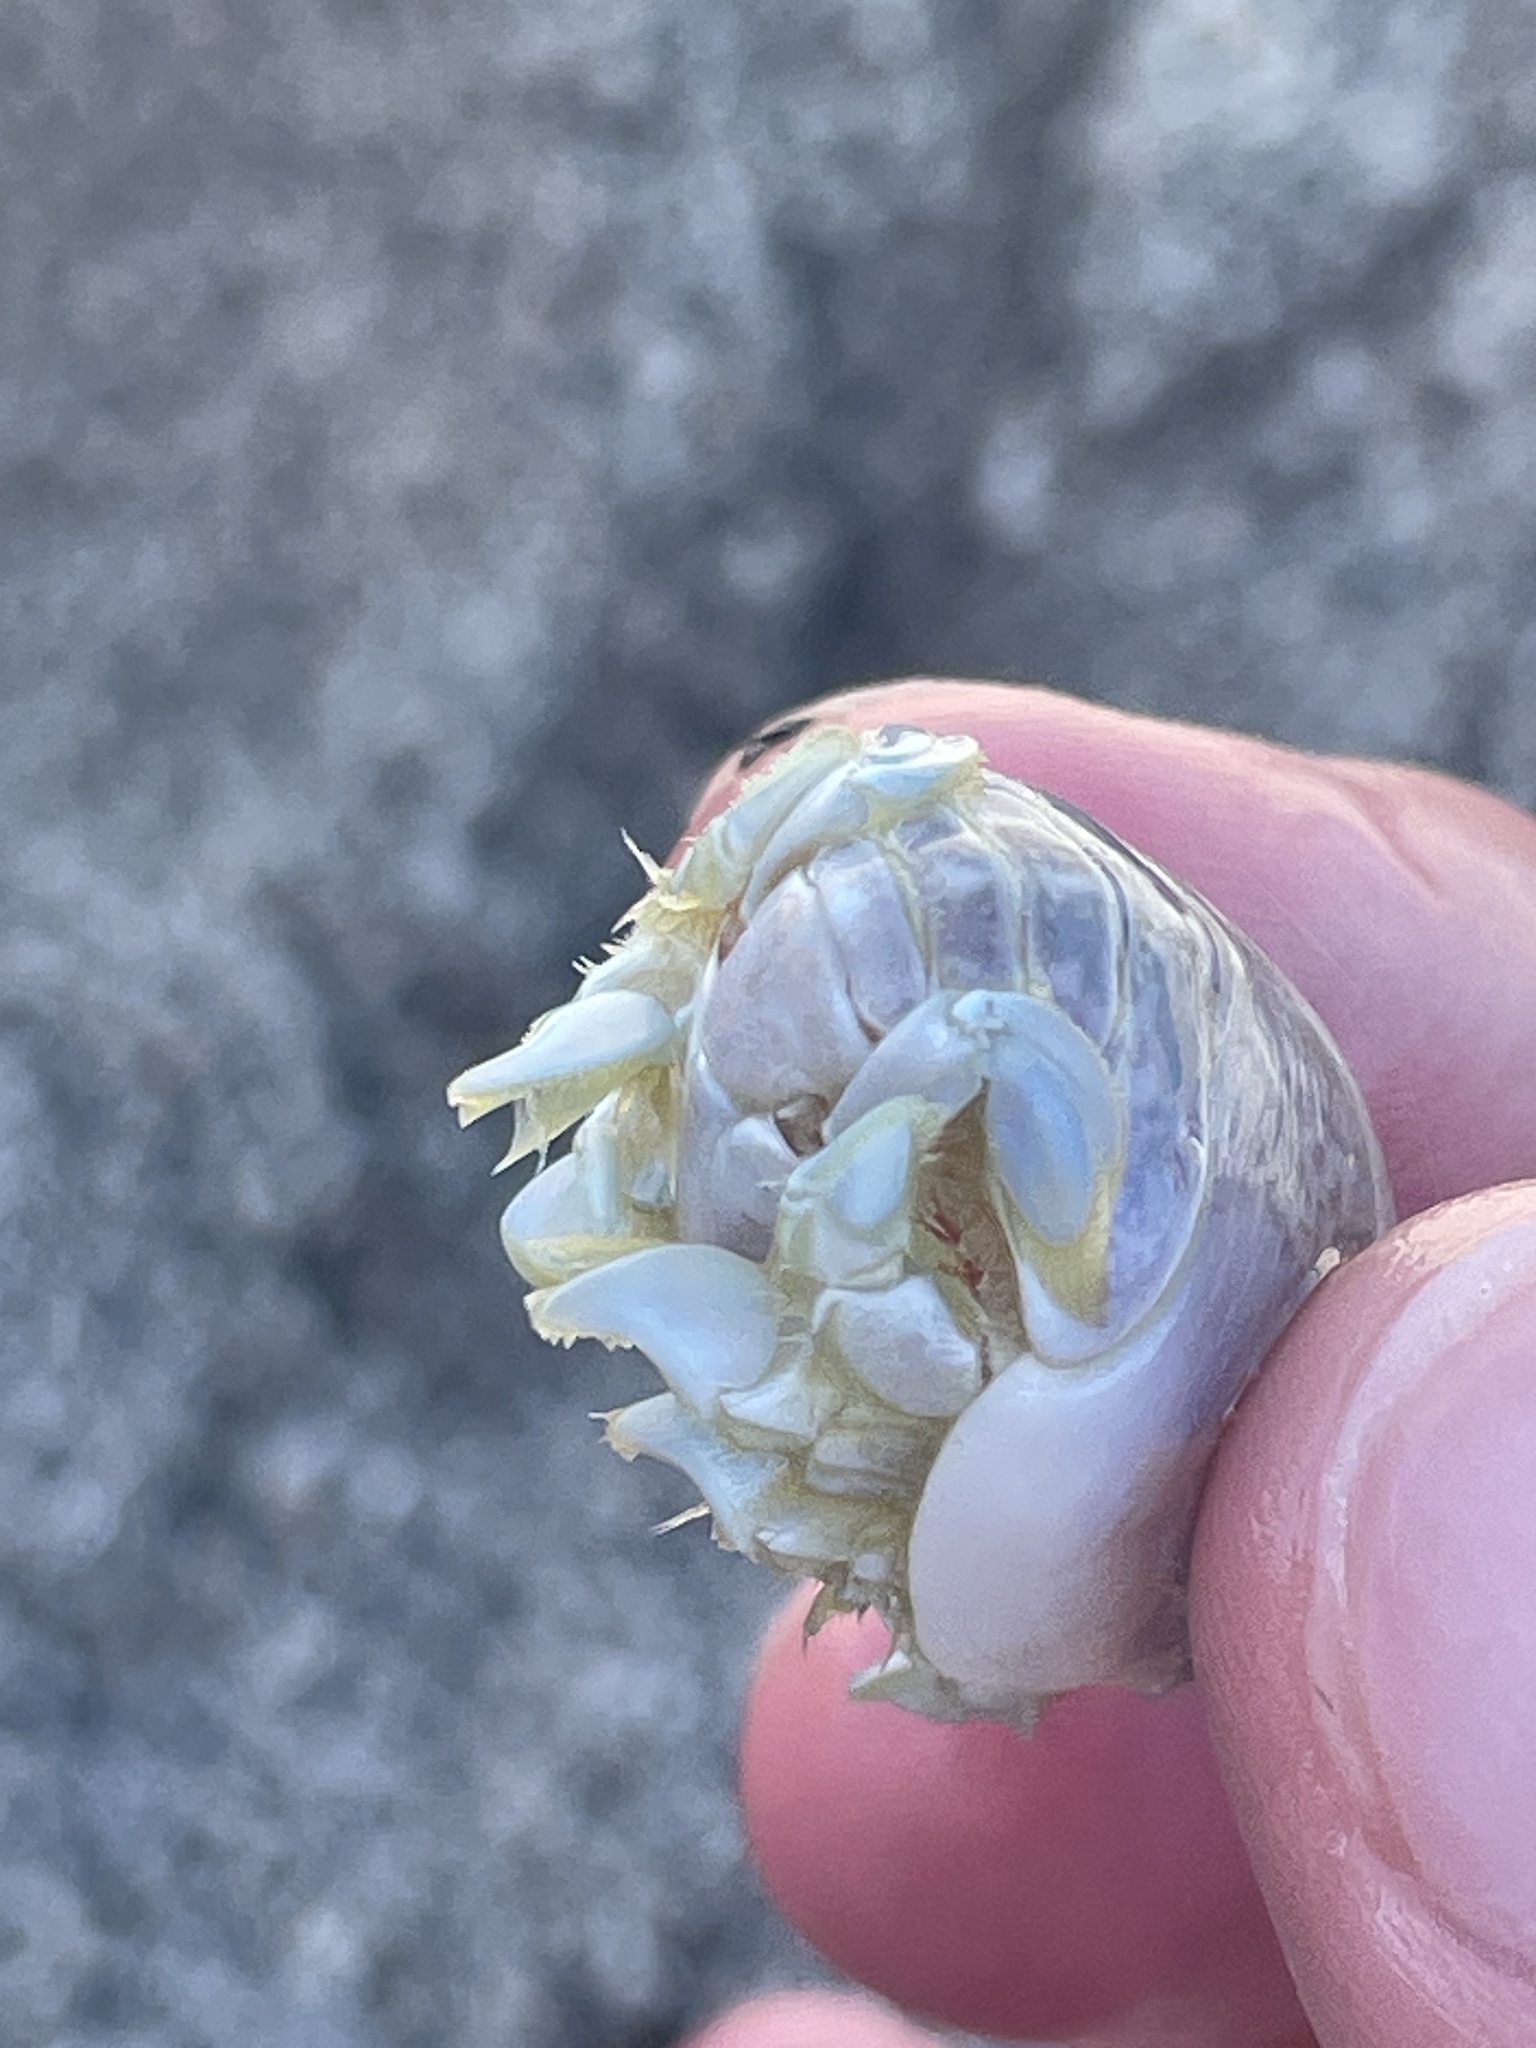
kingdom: Animalia
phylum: Arthropoda
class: Malacostraca
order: Decapoda
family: Hippidae
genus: Emerita
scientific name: Emerita talpoida
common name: Atlantic sand crab
